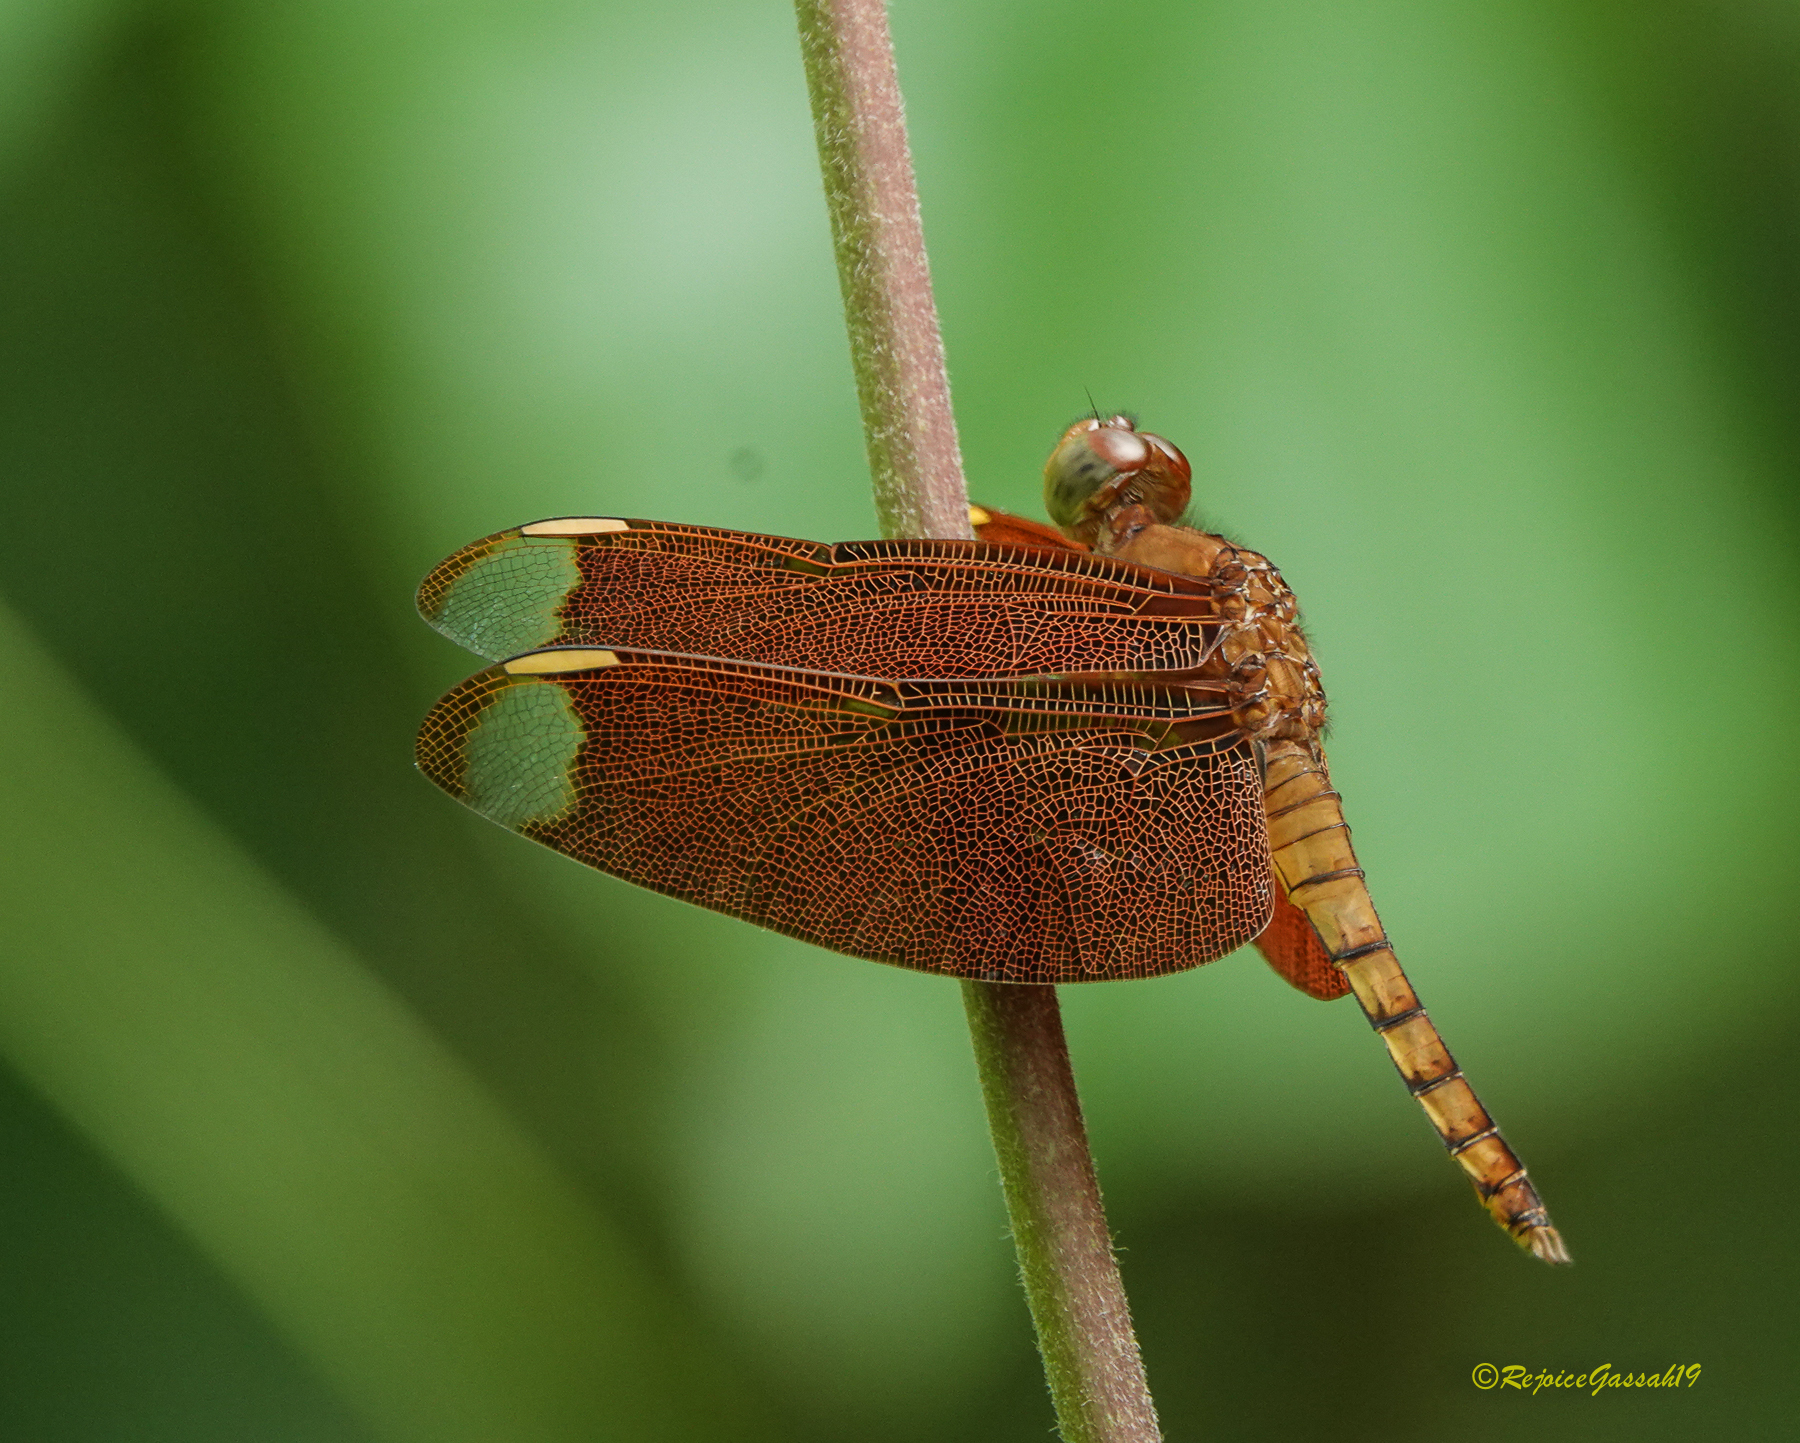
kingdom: Animalia
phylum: Arthropoda
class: Insecta
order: Odonata
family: Libellulidae
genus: Neurothemis
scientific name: Neurothemis fulvia
